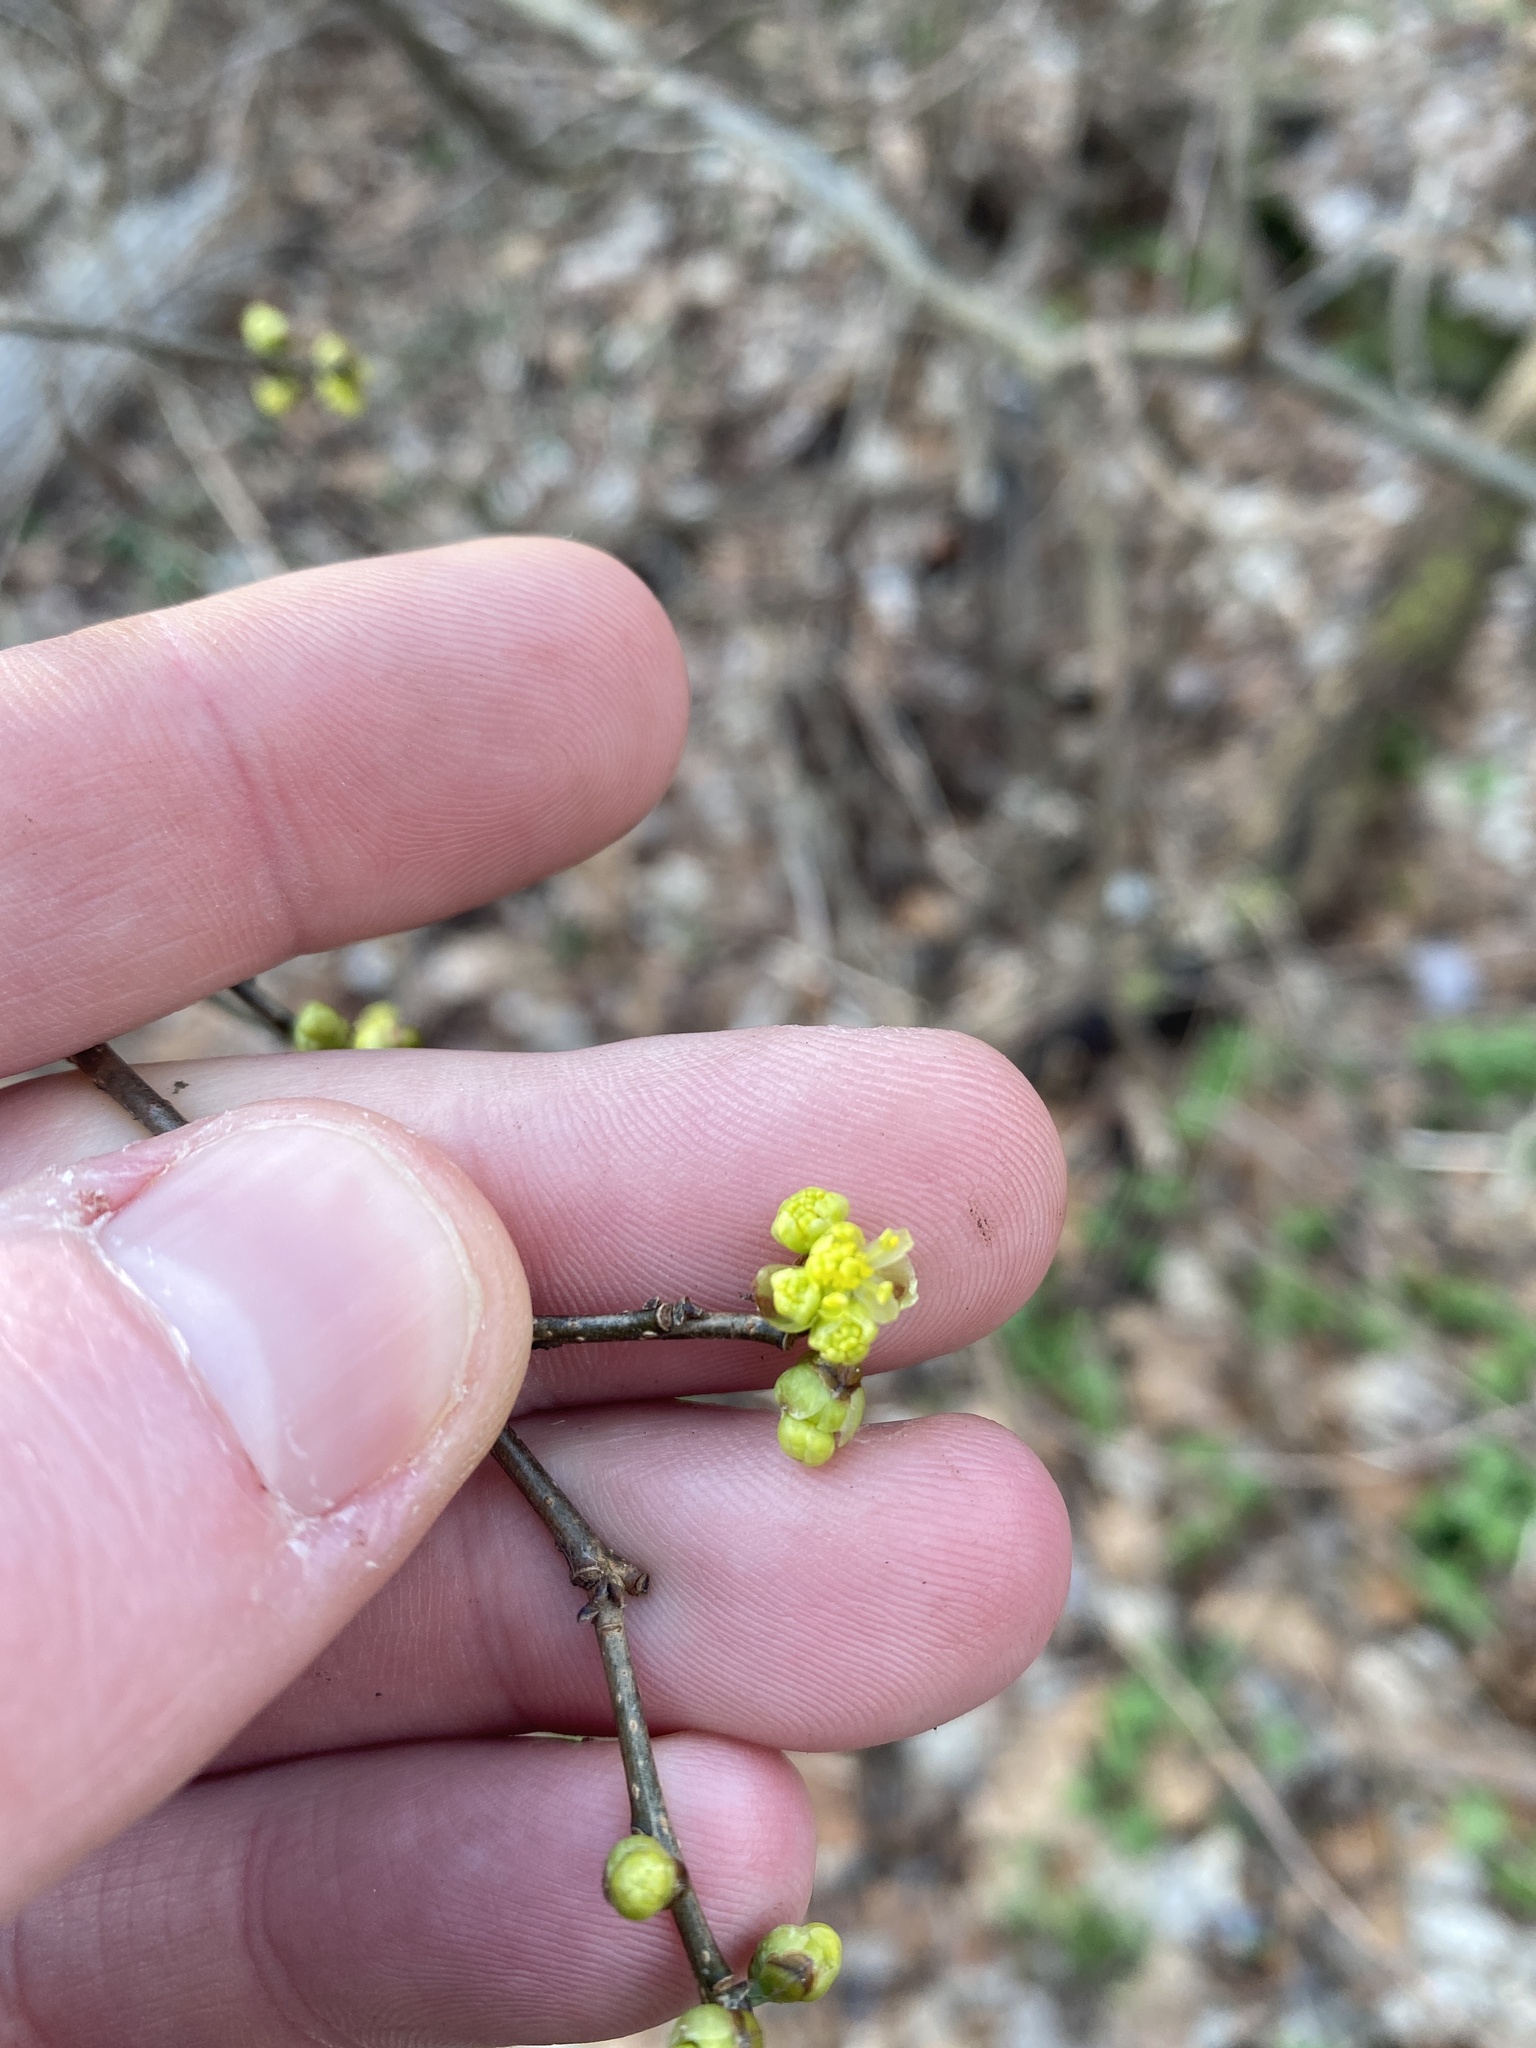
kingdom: Plantae
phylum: Tracheophyta
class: Magnoliopsida
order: Laurales
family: Lauraceae
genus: Lindera
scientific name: Lindera benzoin
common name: Spicebush
